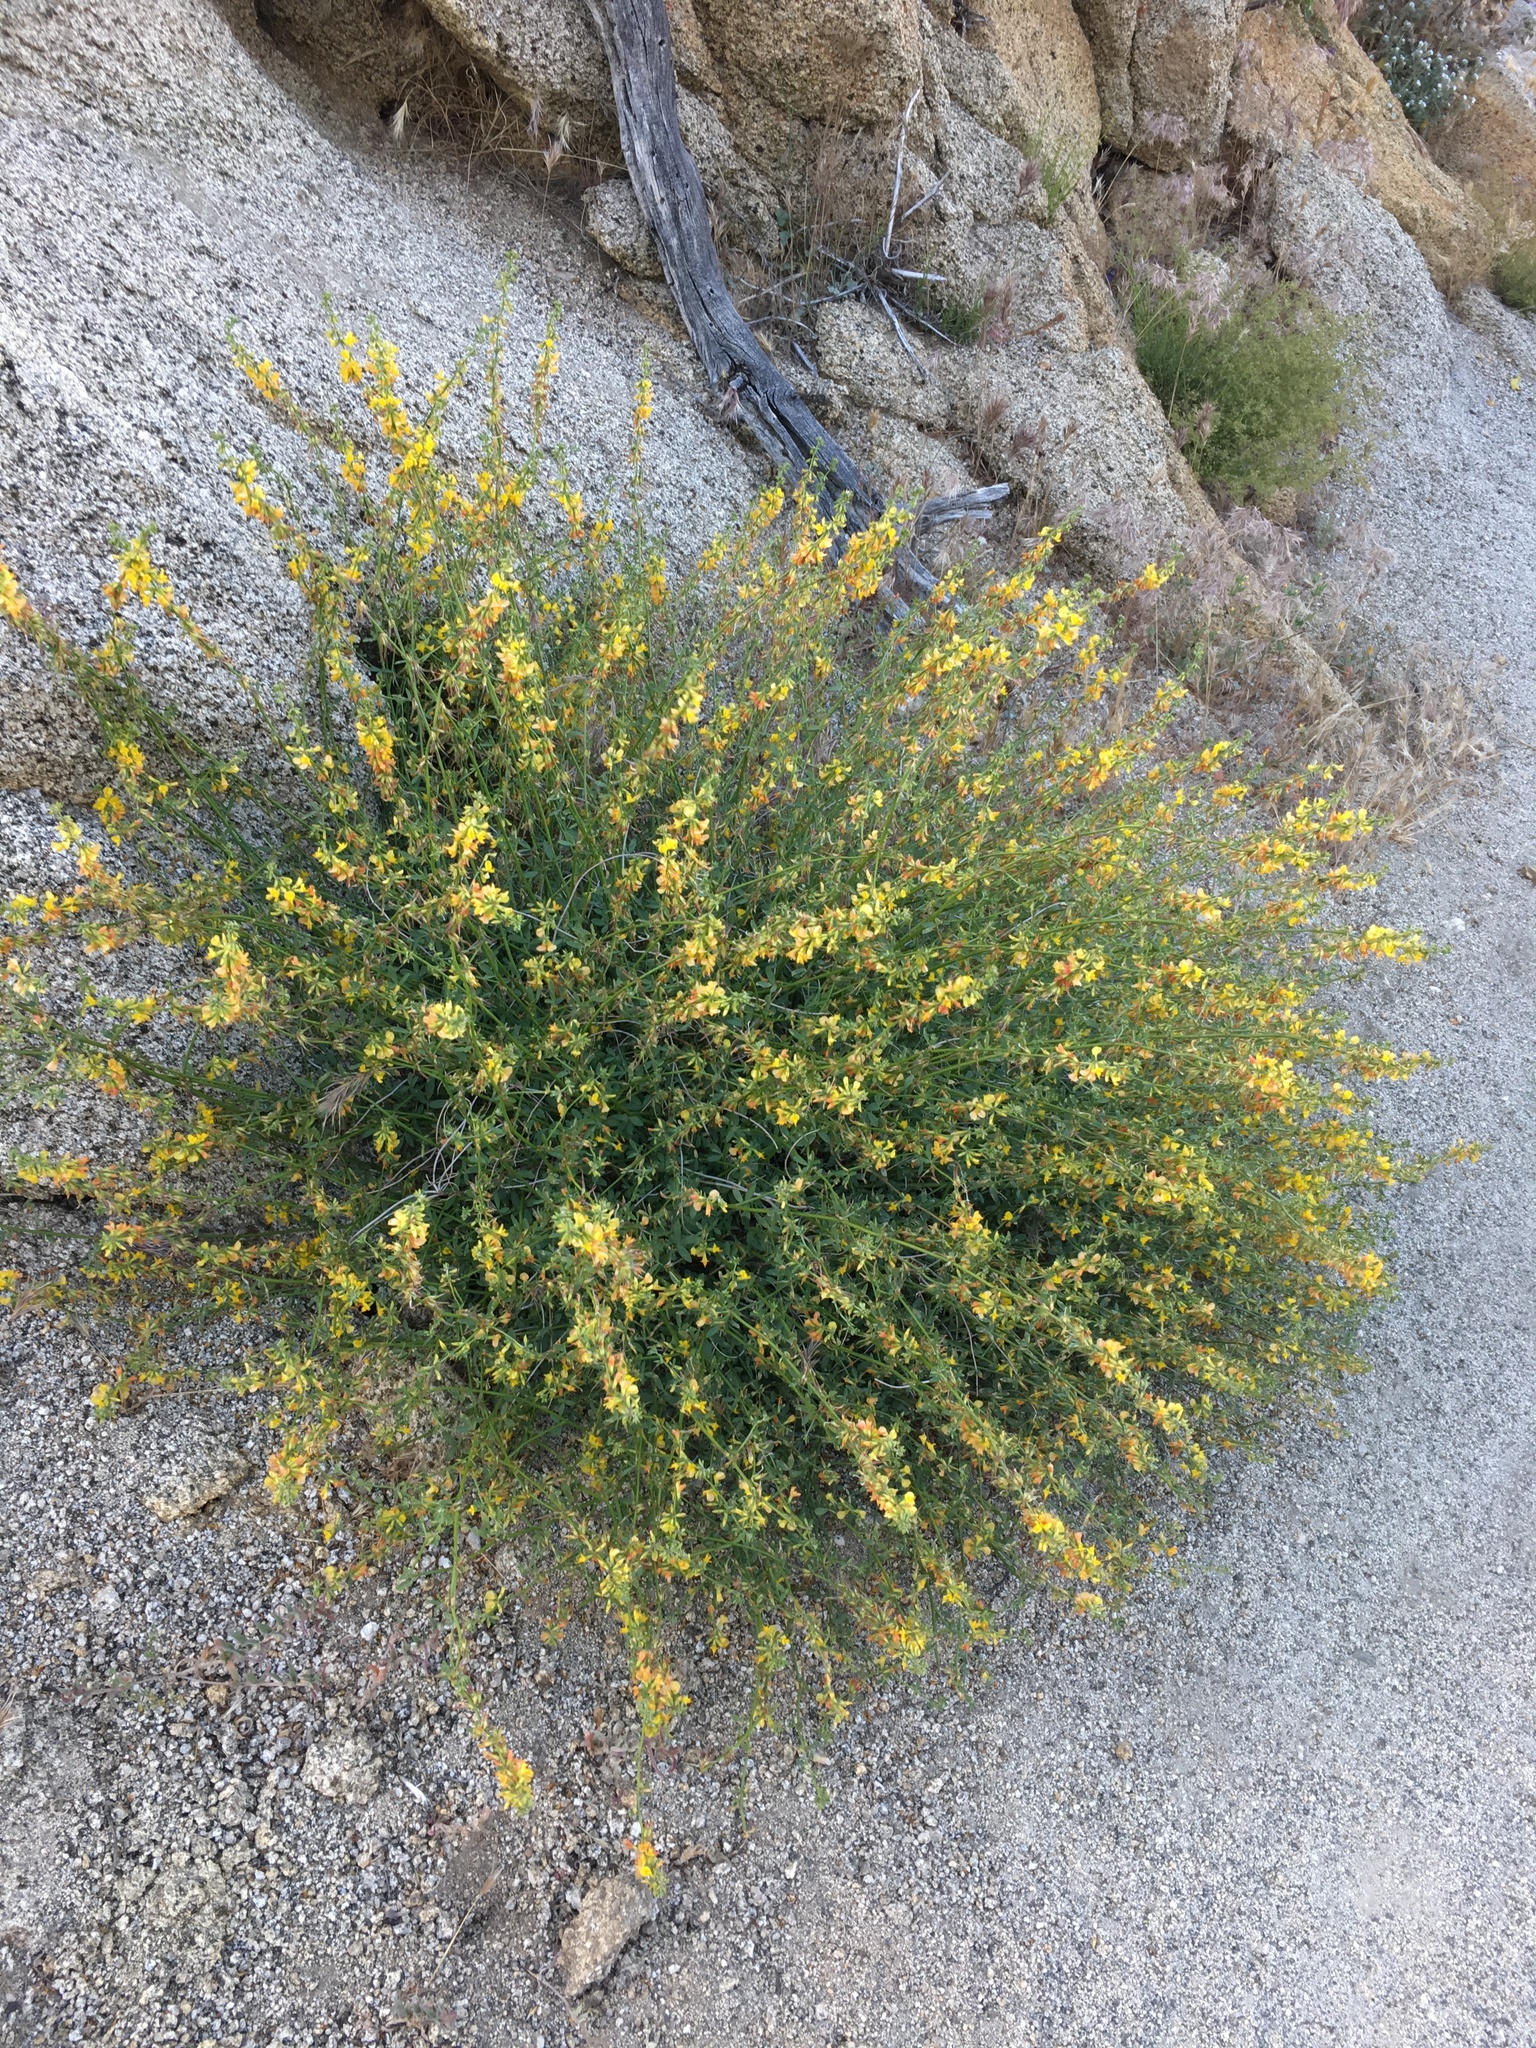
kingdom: Plantae
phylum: Tracheophyta
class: Magnoliopsida
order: Fabales
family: Fabaceae
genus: Acmispon
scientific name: Acmispon glaber
